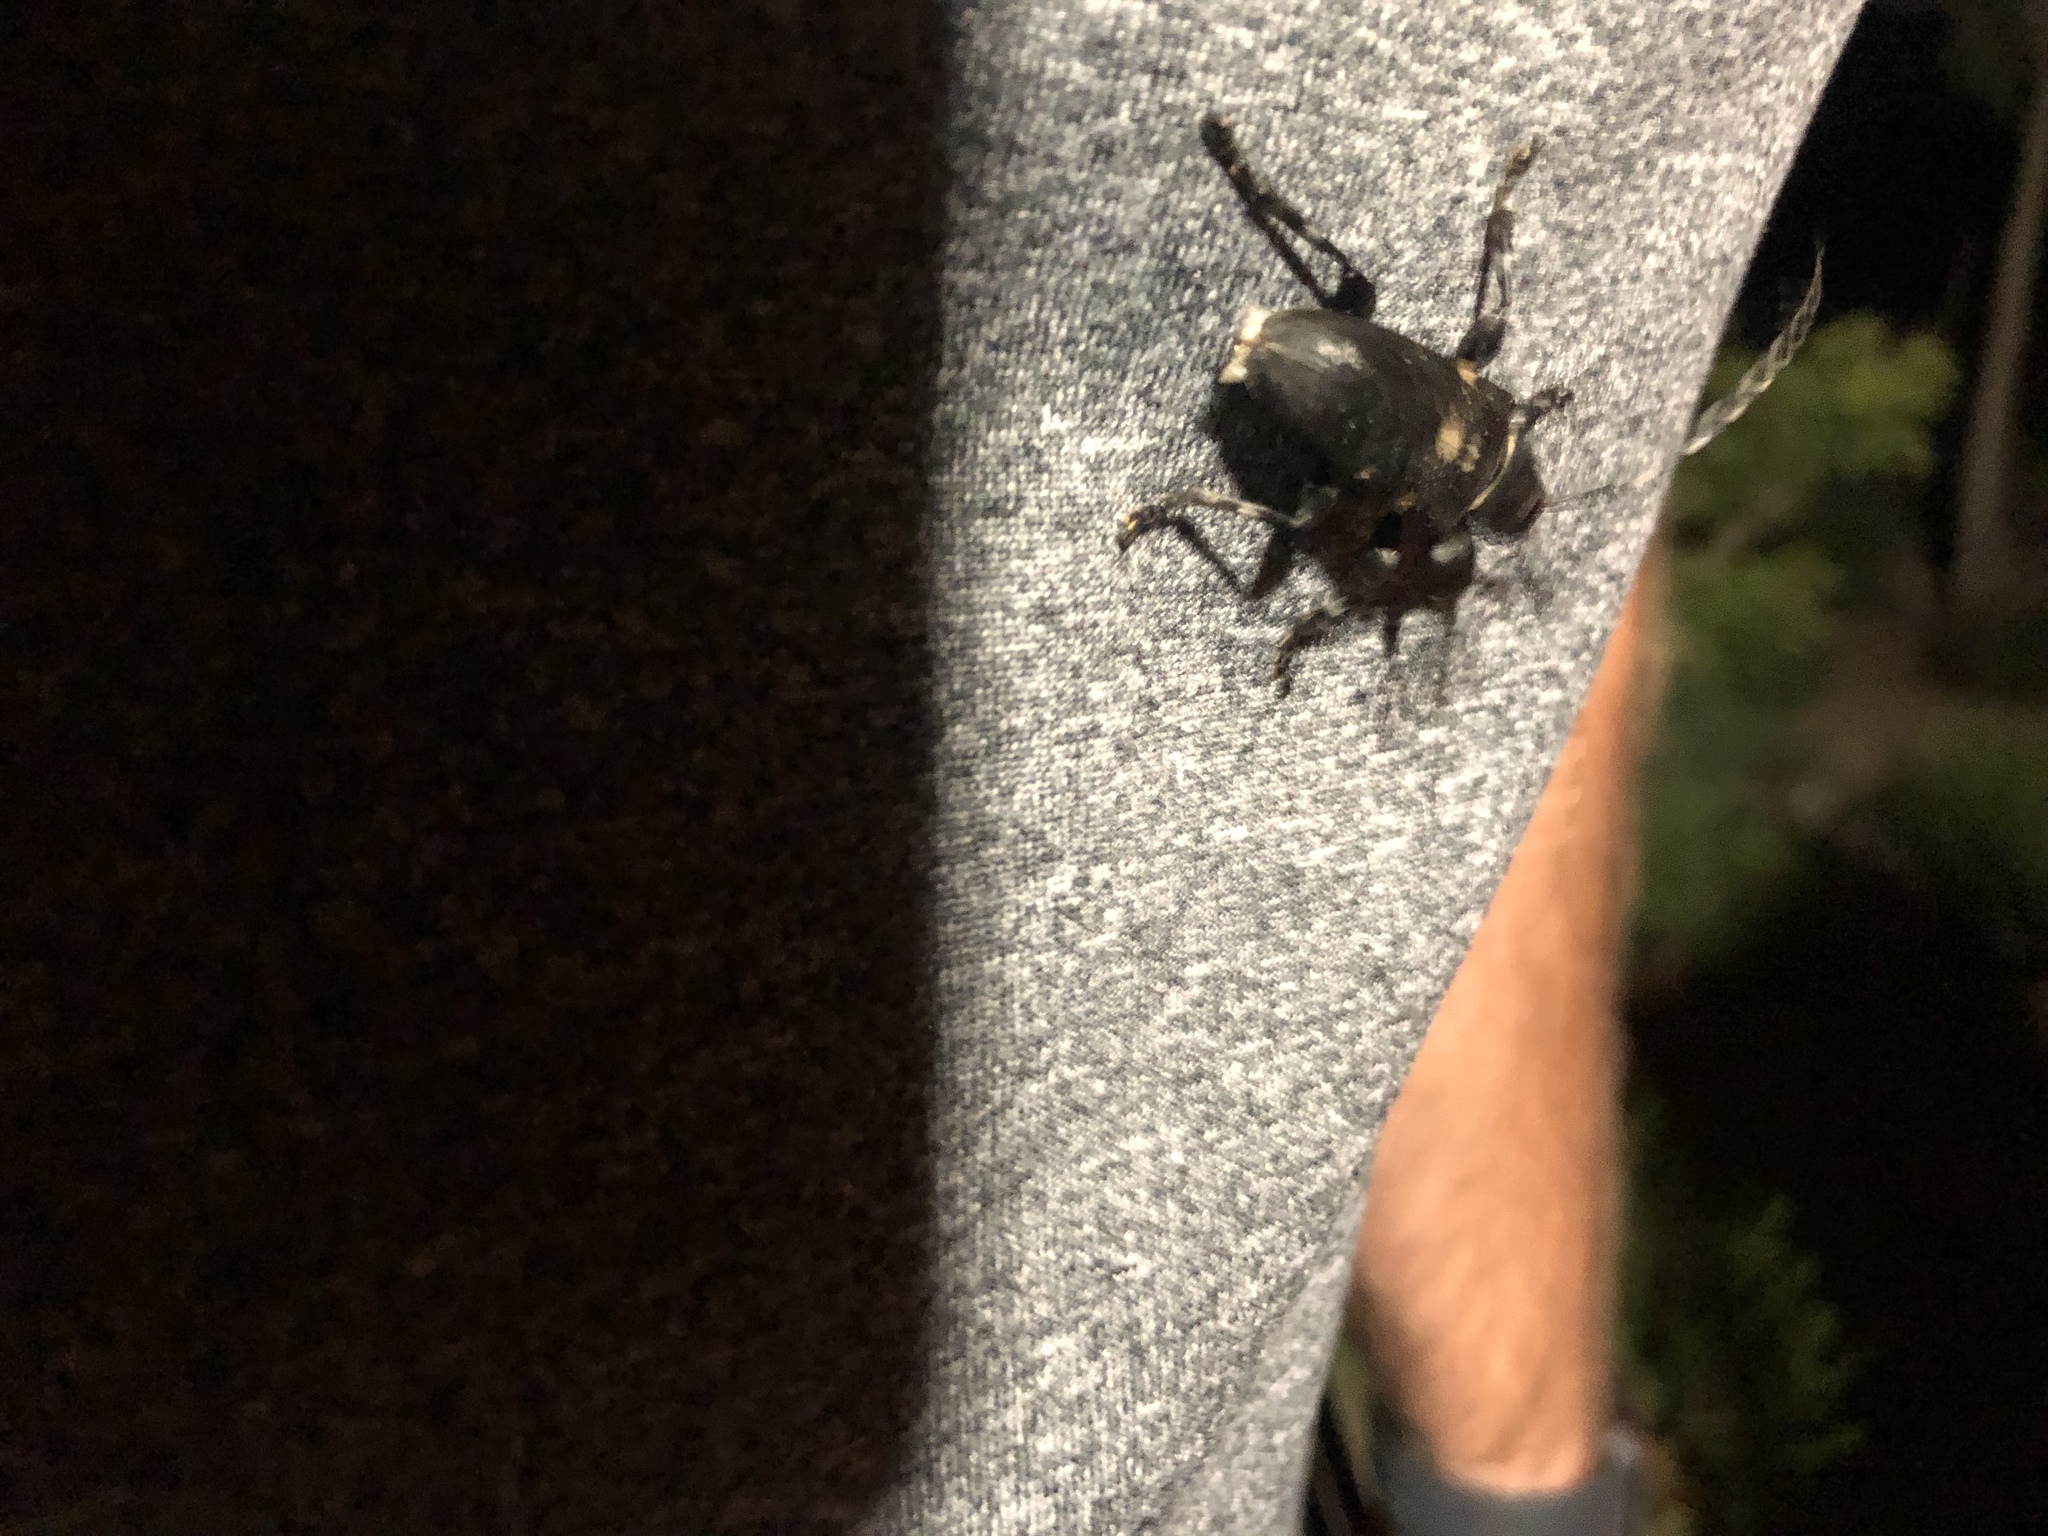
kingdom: Animalia
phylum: Arthropoda
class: Insecta
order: Coleoptera
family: Cerambycidae
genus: Coenopoeus
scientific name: Coenopoeus palmeri
